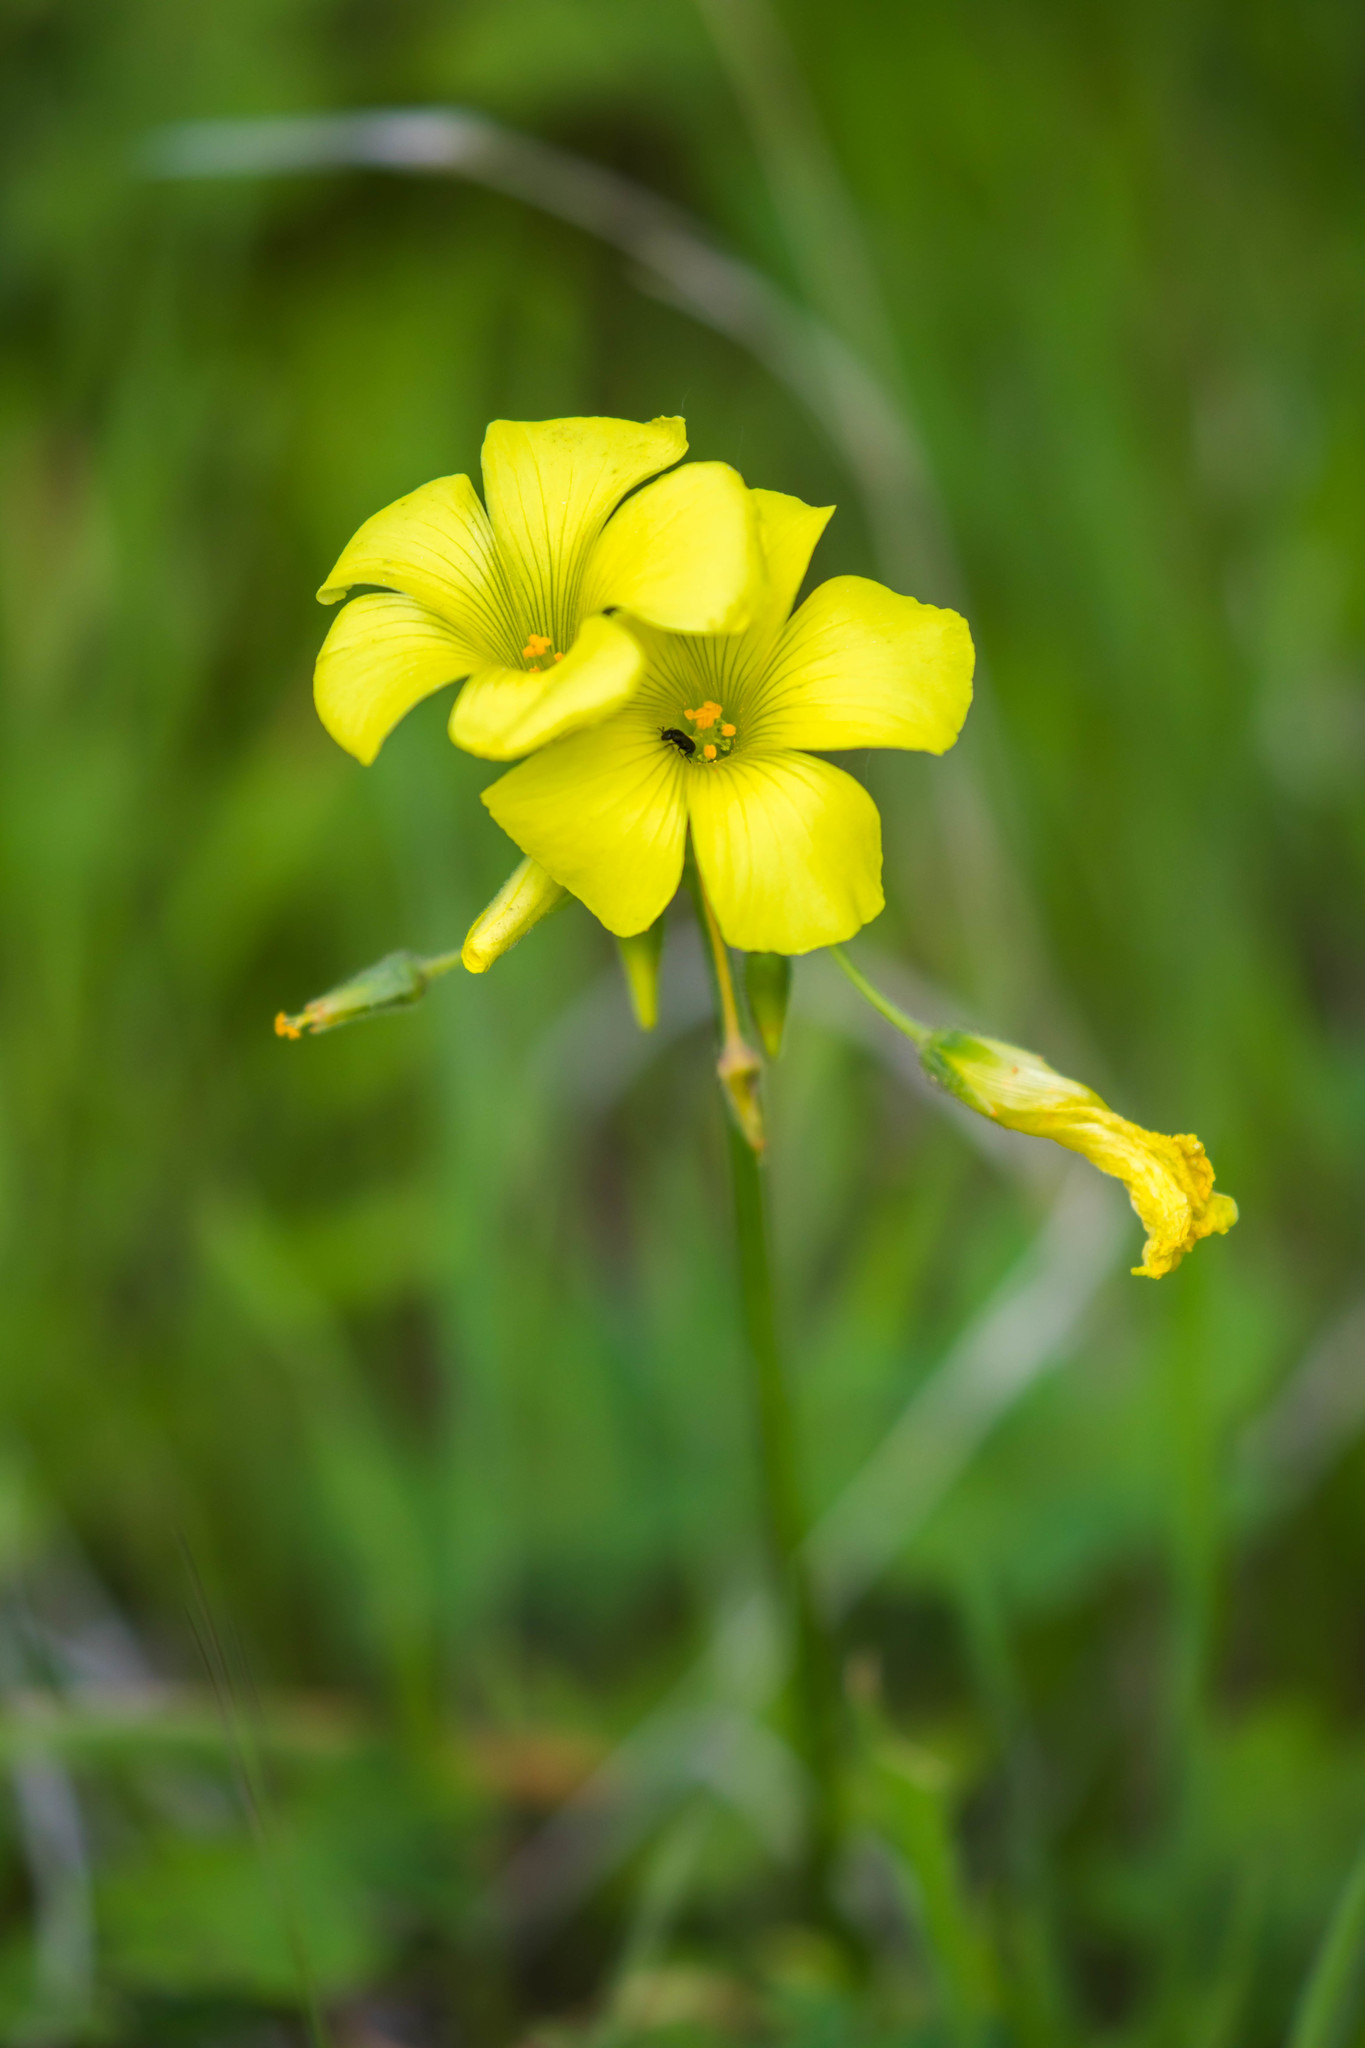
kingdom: Plantae
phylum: Tracheophyta
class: Magnoliopsida
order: Oxalidales
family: Oxalidaceae
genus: Oxalis
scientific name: Oxalis pes-caprae
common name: Bermuda-buttercup
